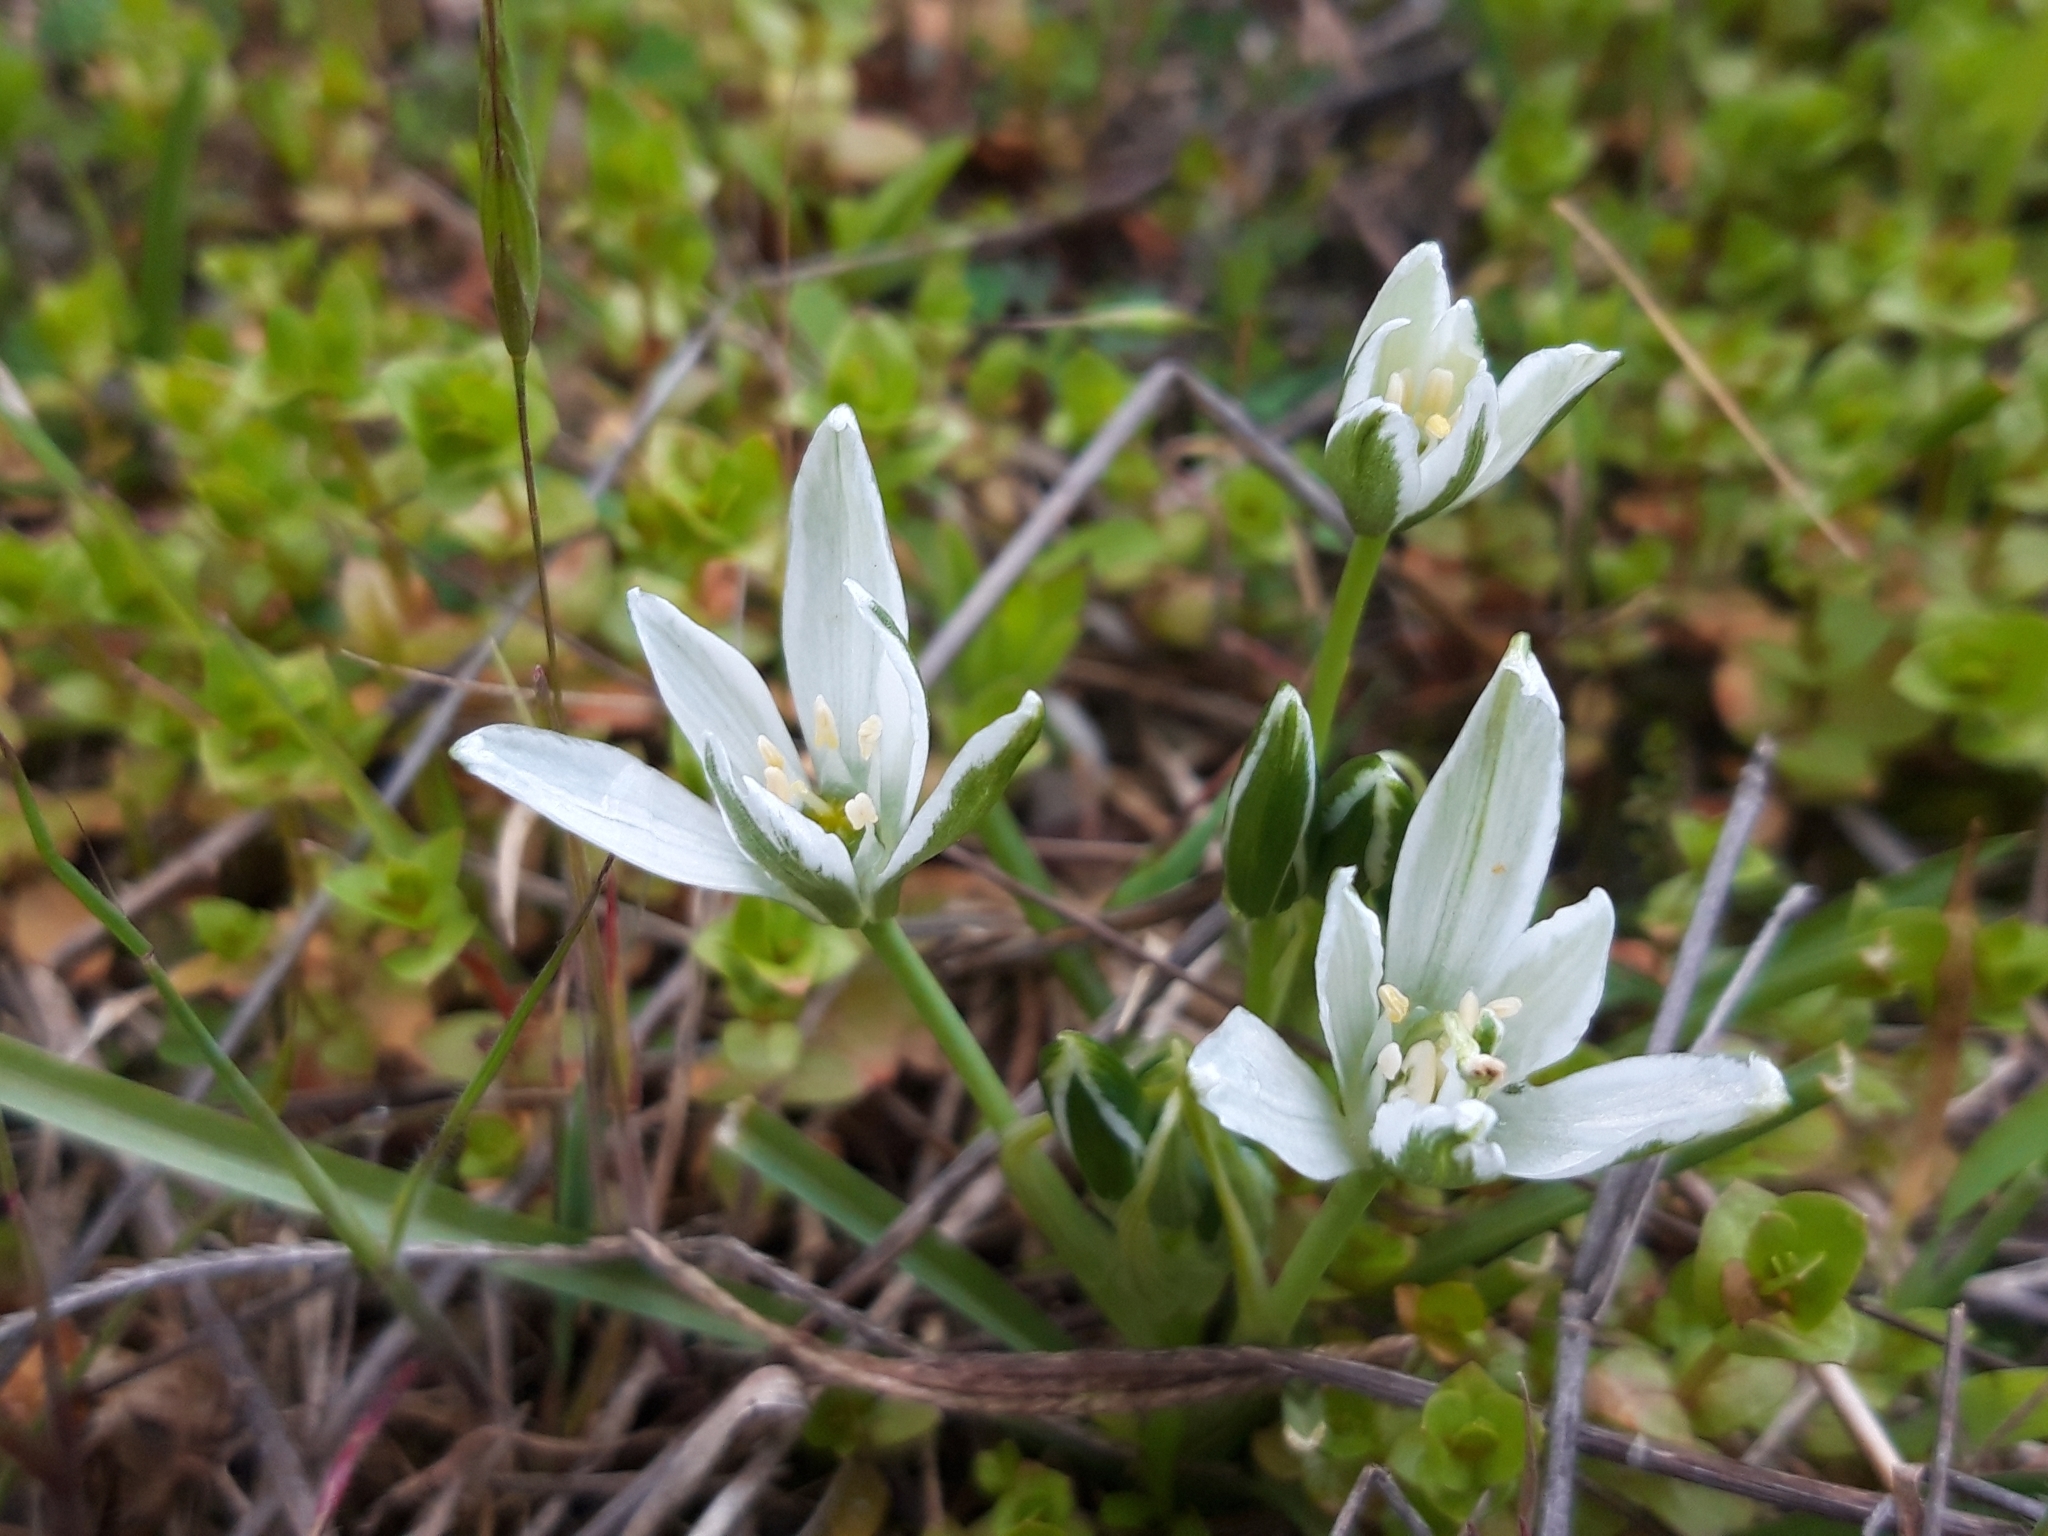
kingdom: Plantae
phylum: Tracheophyta
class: Liliopsida
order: Asparagales
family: Asparagaceae
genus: Ornithogalum
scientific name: Ornithogalum umbellatum
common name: Garden star-of-bethlehem
